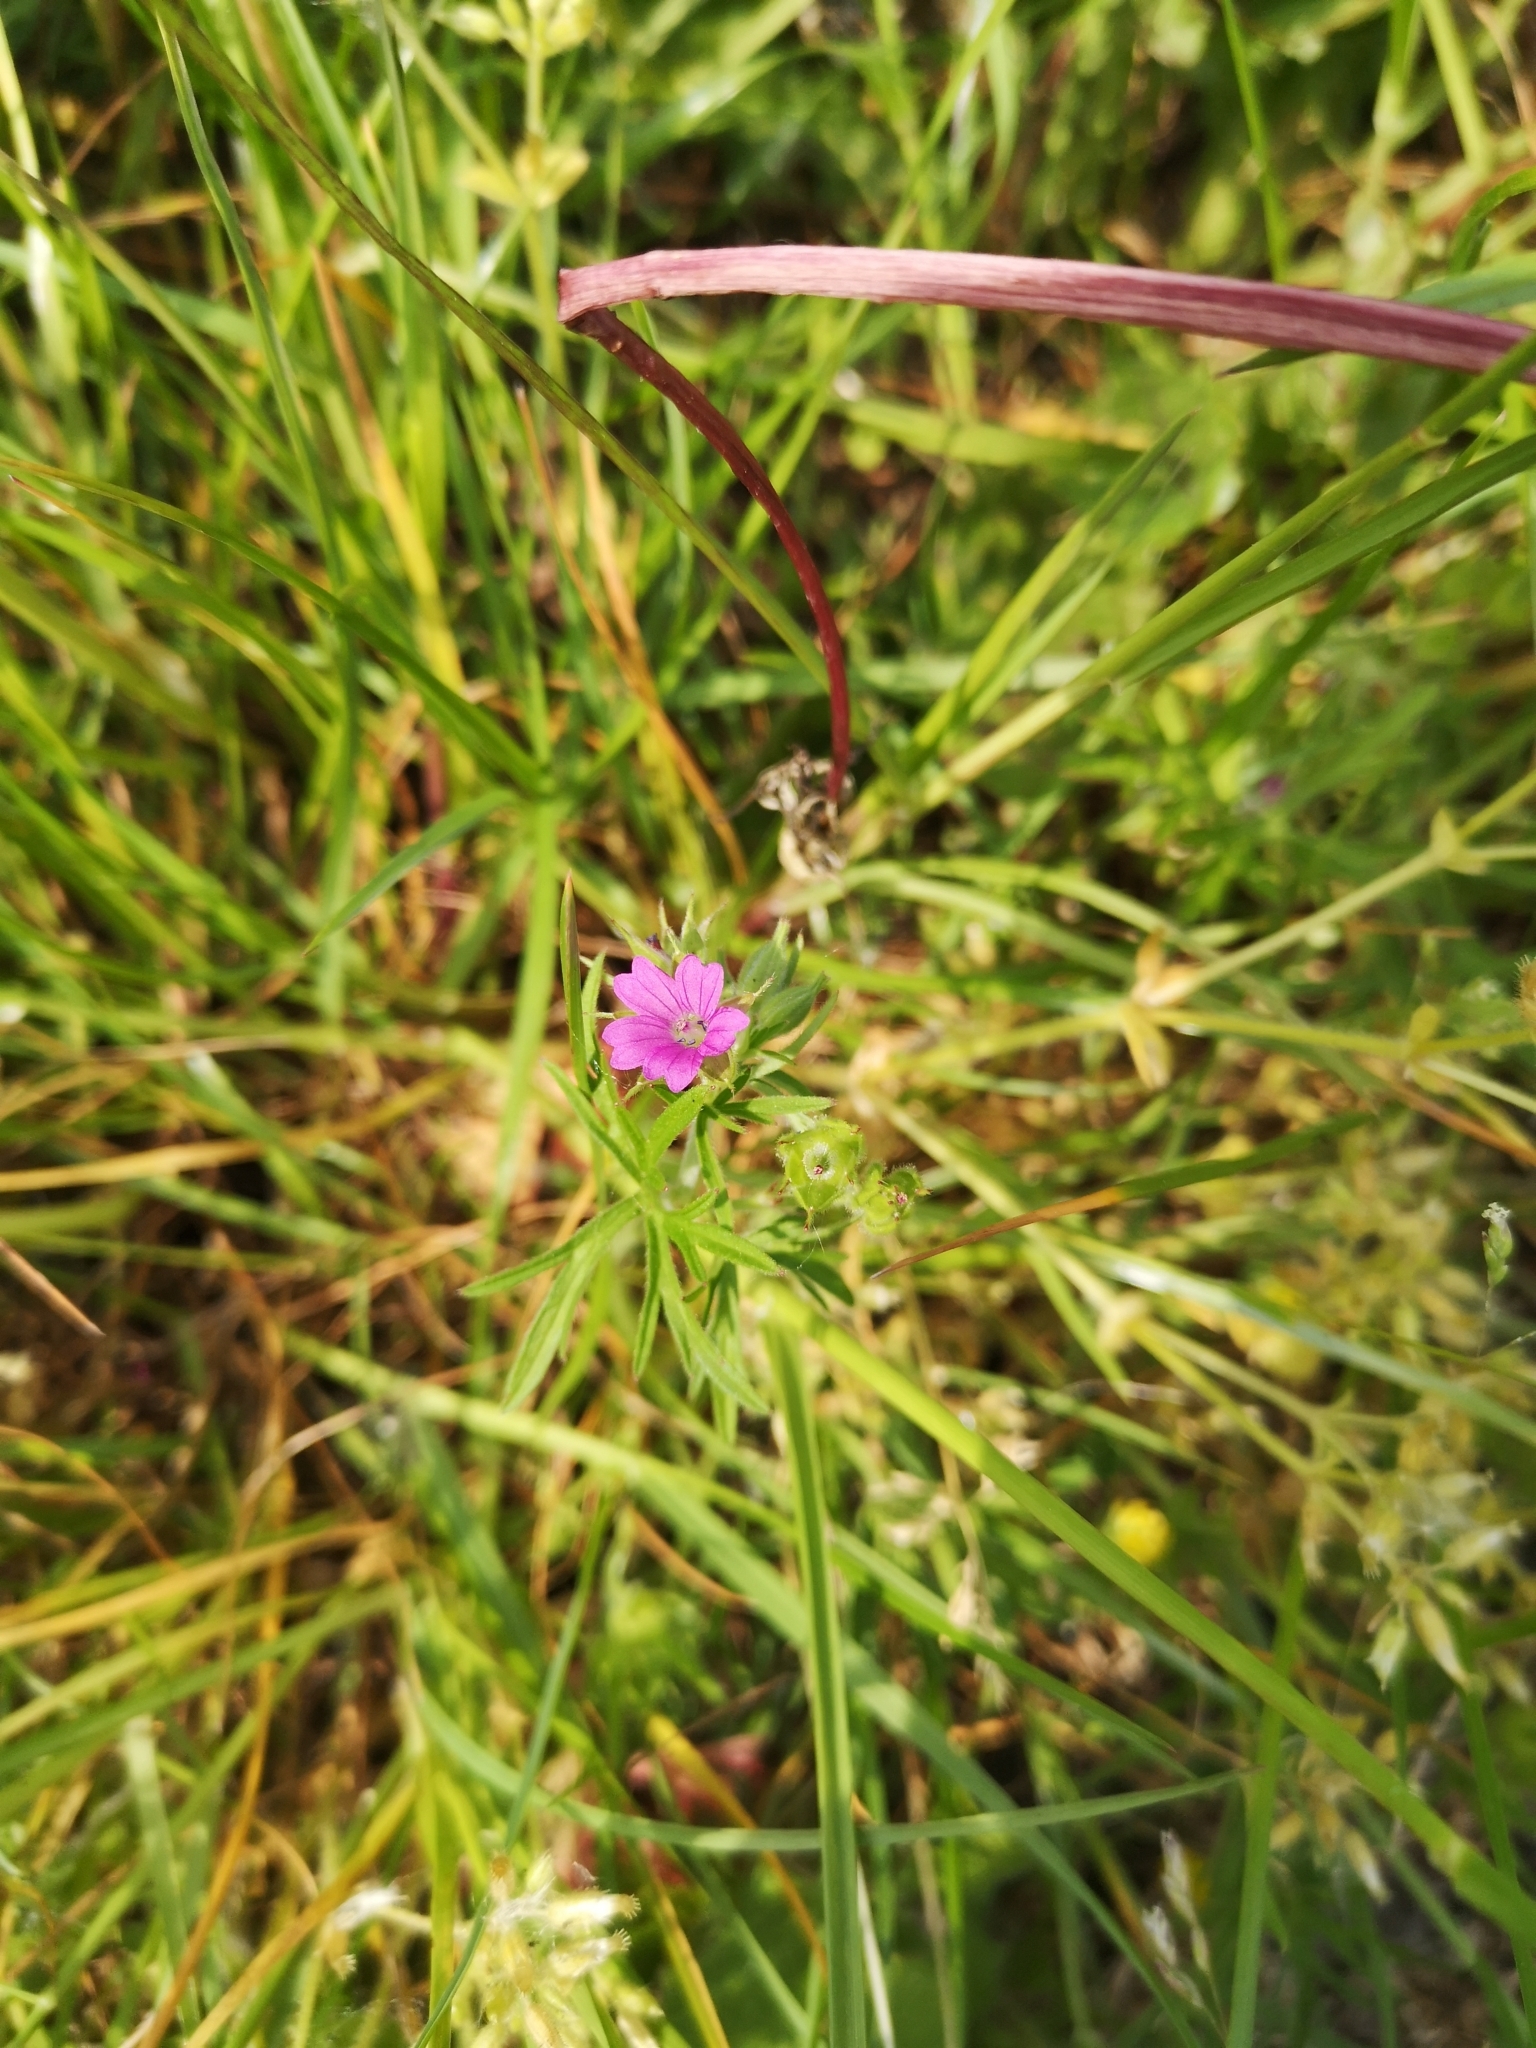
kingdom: Plantae
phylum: Tracheophyta
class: Magnoliopsida
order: Geraniales
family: Geraniaceae
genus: Geranium
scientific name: Geranium dissectum
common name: Cut-leaved crane's-bill
